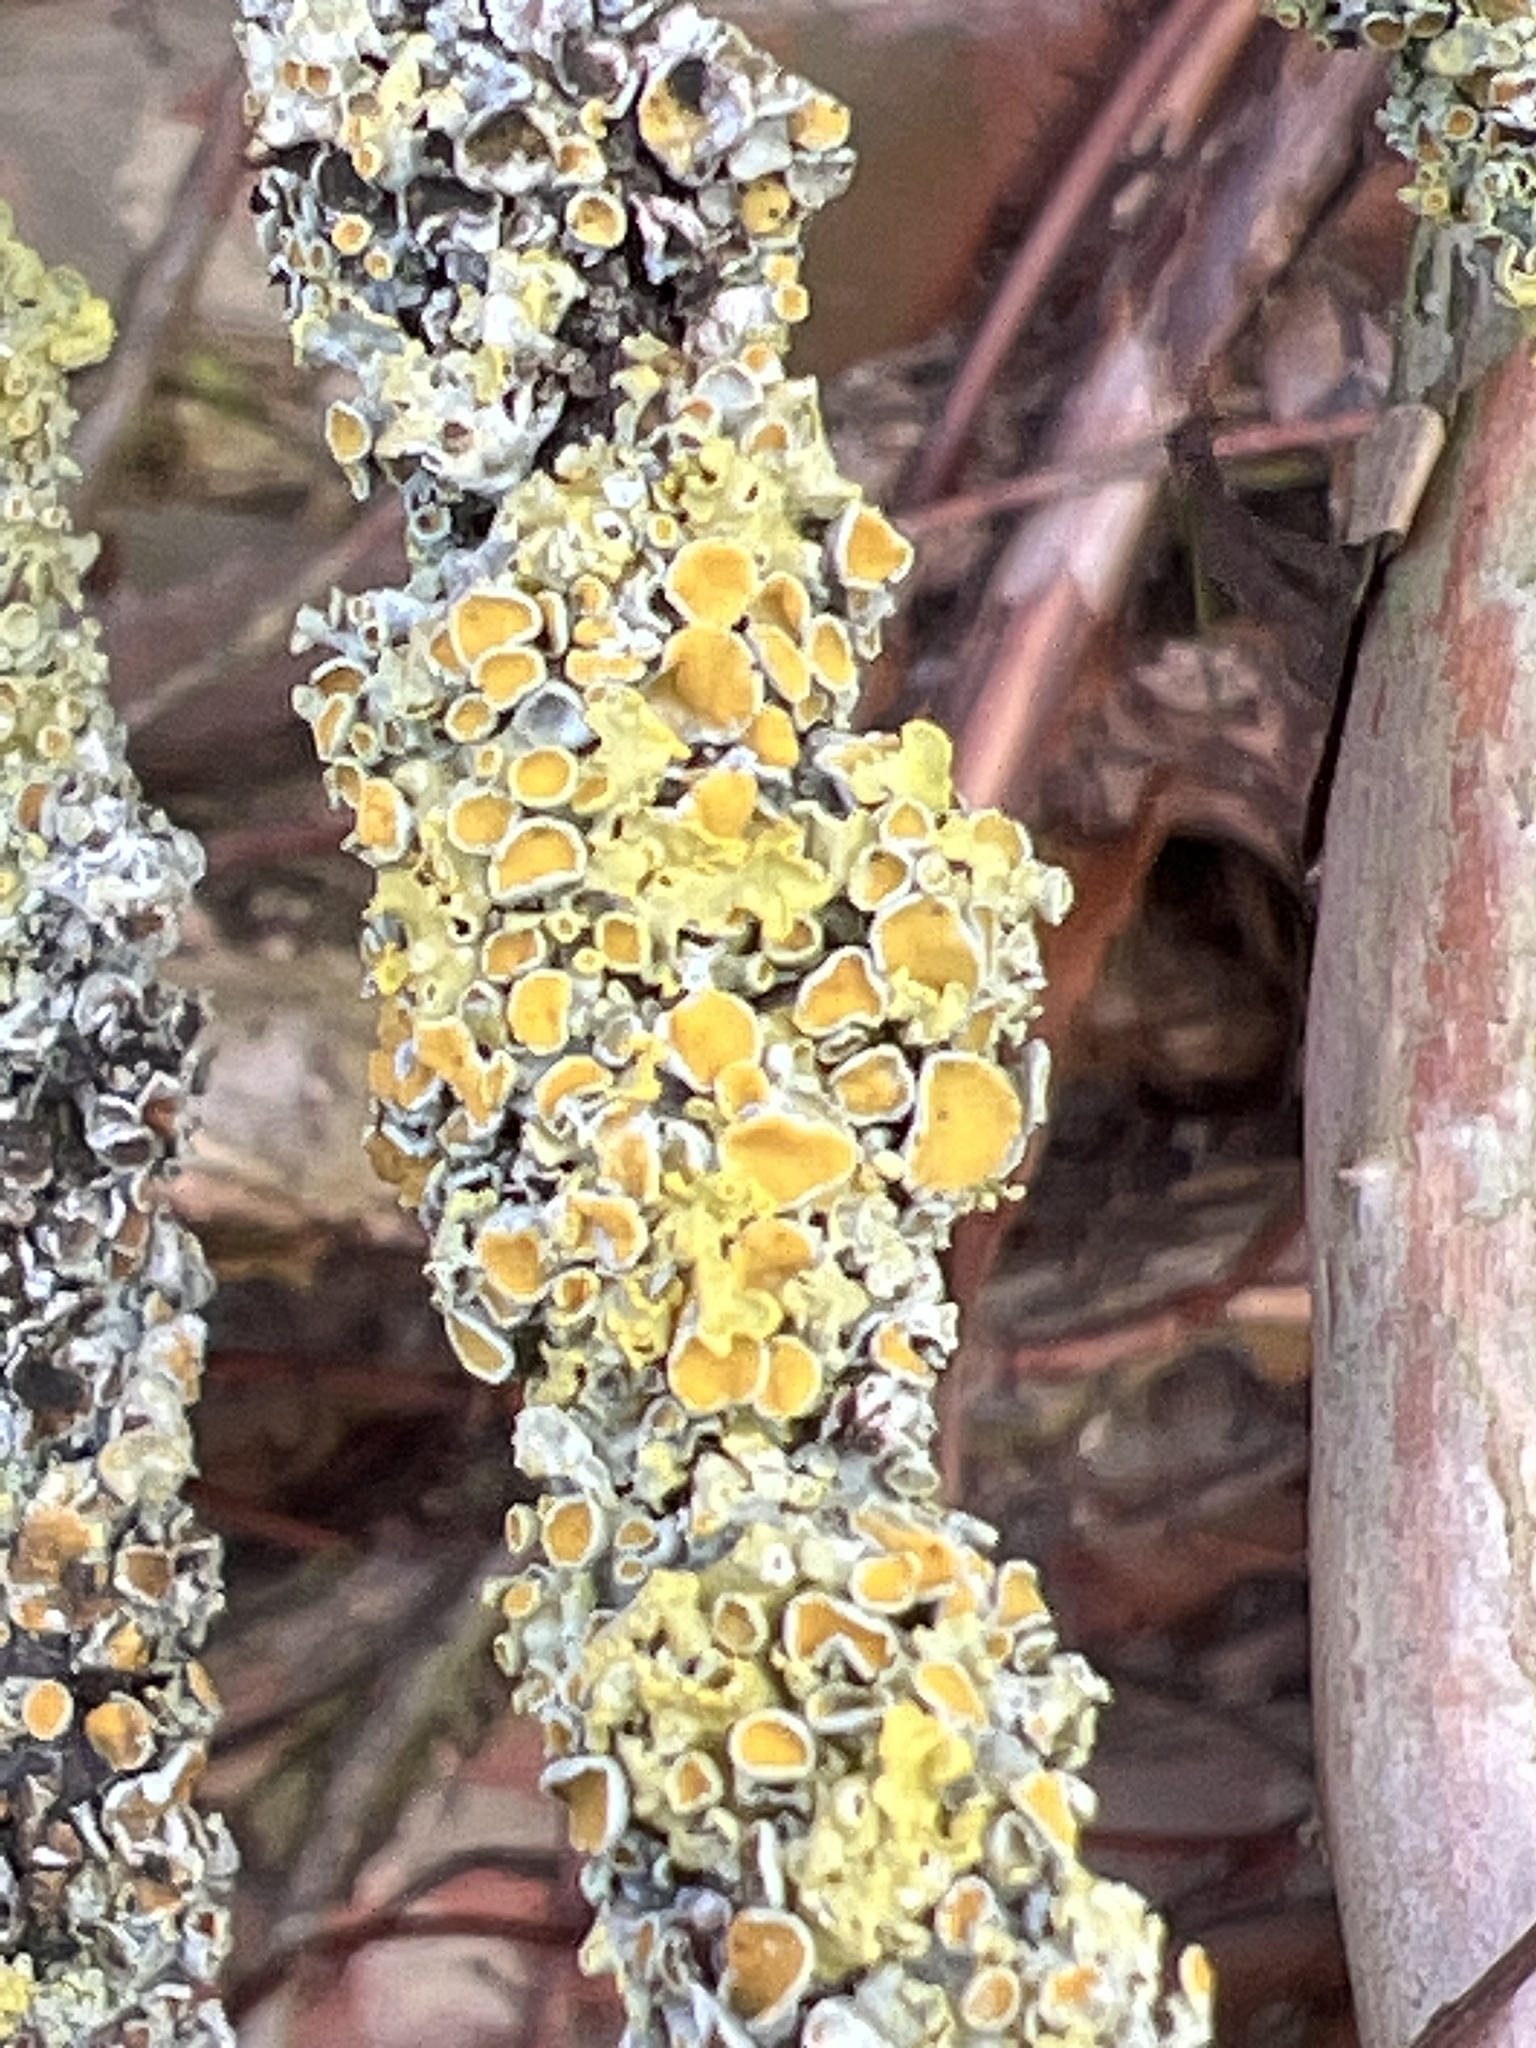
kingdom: Fungi
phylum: Ascomycota
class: Lecanoromycetes
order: Teloschistales
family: Teloschistaceae
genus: Xanthoria
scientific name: Xanthoria parietina
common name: Common orange lichen
